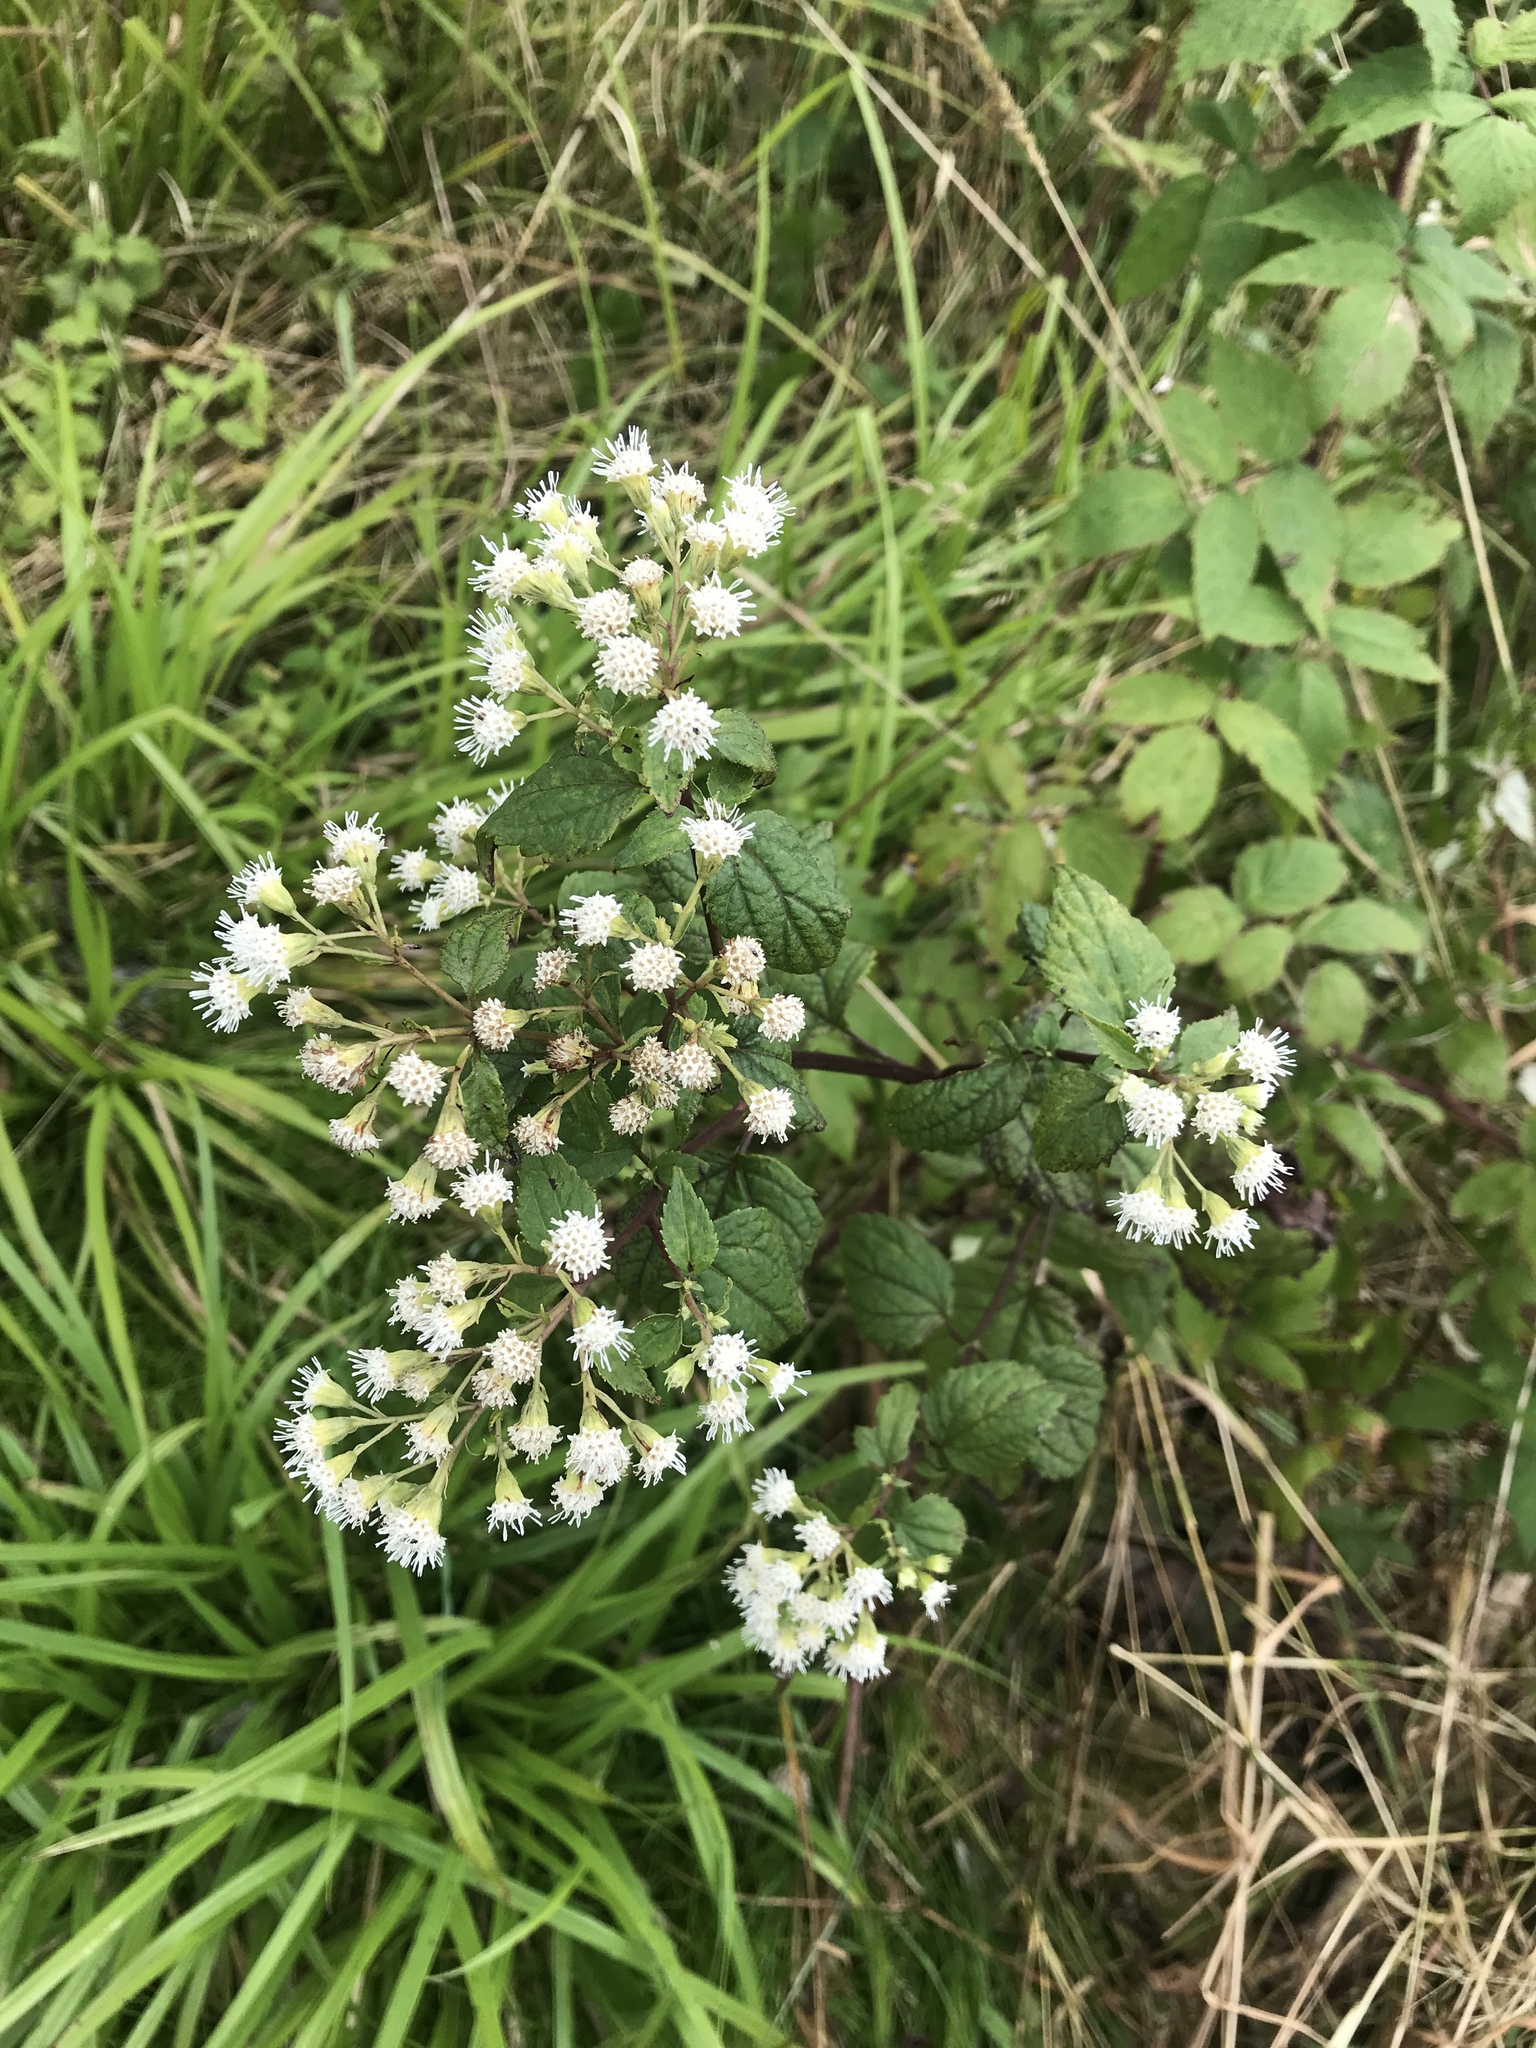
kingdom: Plantae
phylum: Tracheophyta
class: Magnoliopsida
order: Asterales
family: Asteraceae
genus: Ageratina
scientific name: Ageratina altissima
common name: White snakeroot
